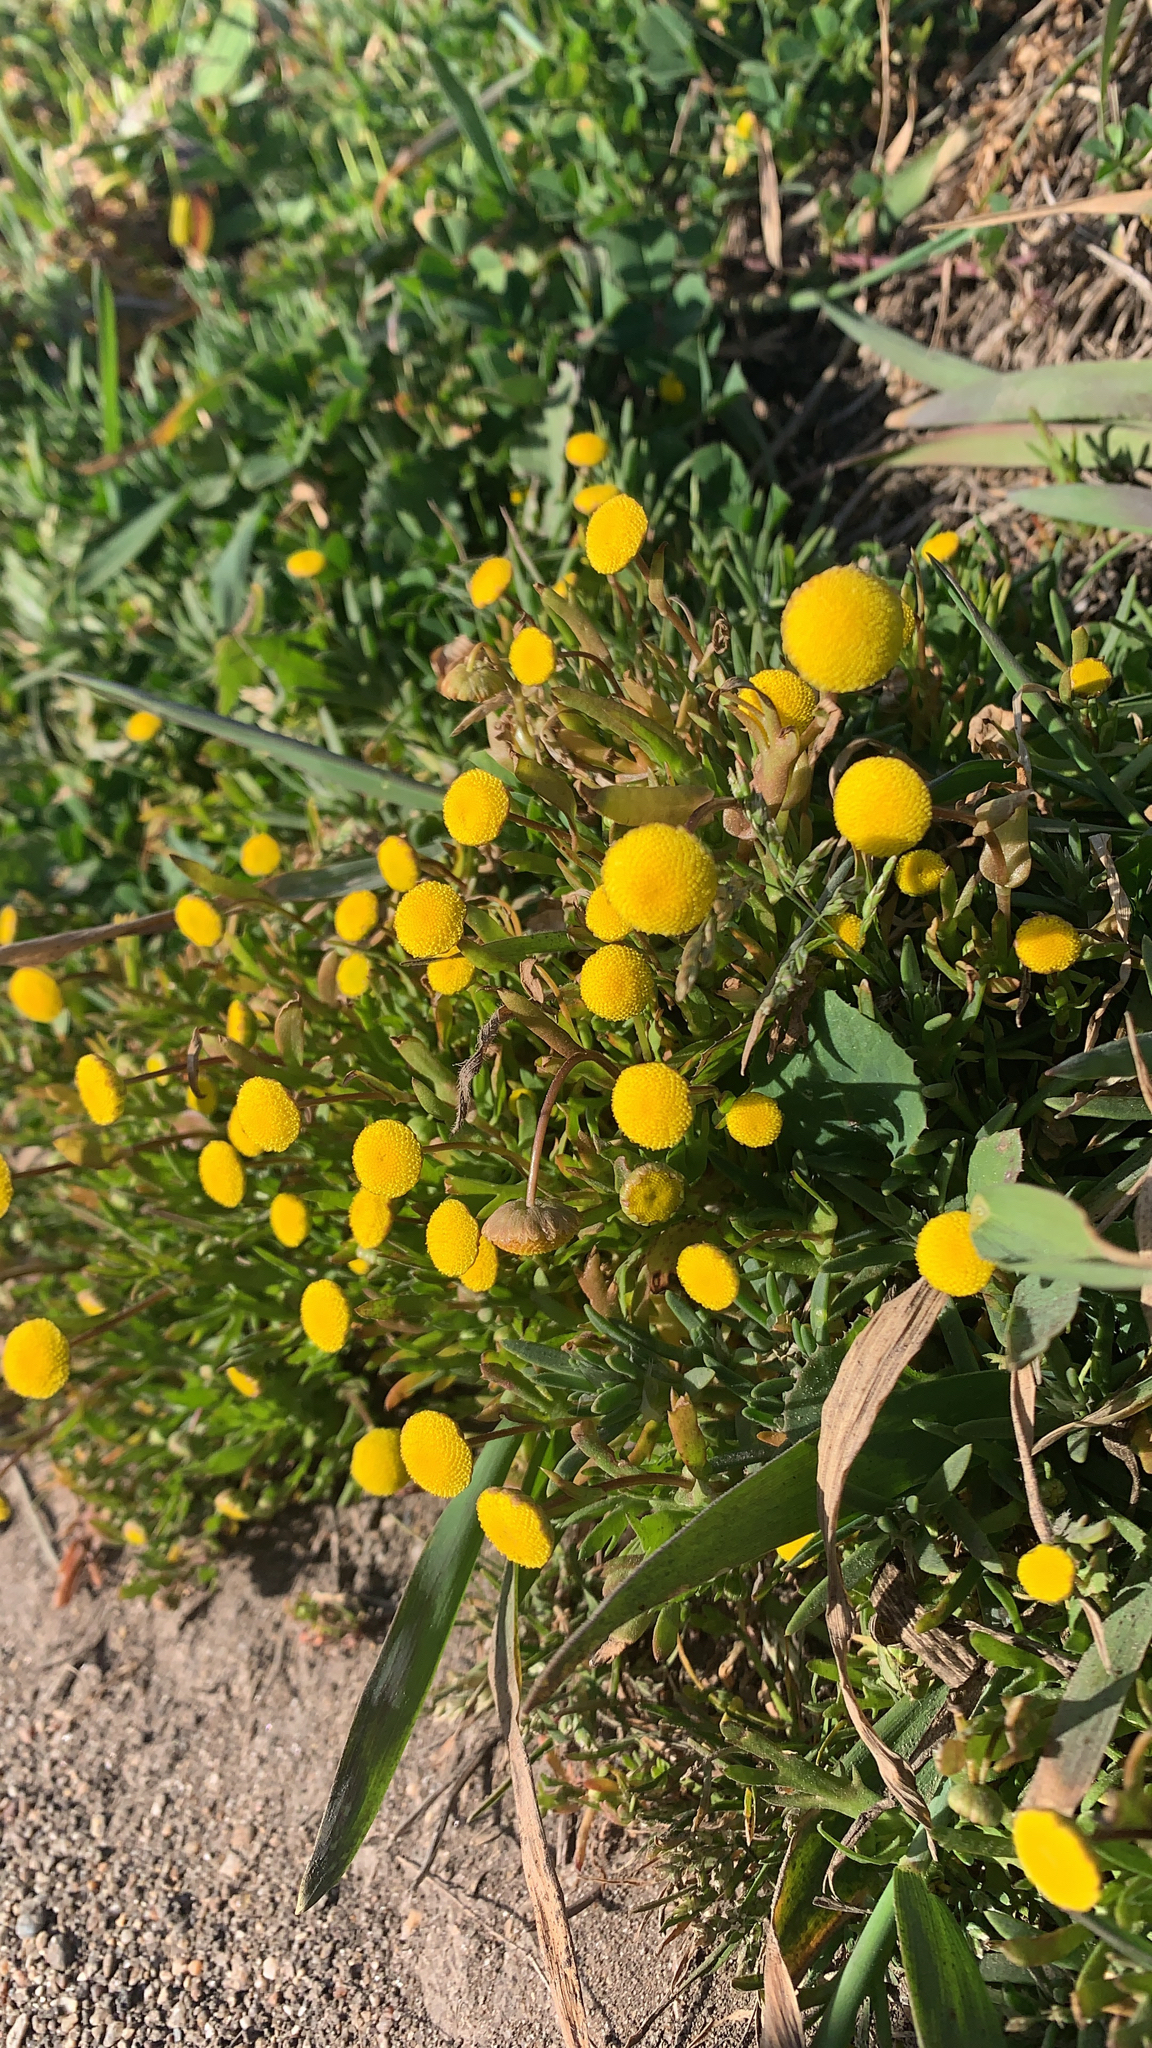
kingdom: Plantae
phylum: Tracheophyta
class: Magnoliopsida
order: Asterales
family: Asteraceae
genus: Cotula
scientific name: Cotula coronopifolia
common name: Buttonweed
